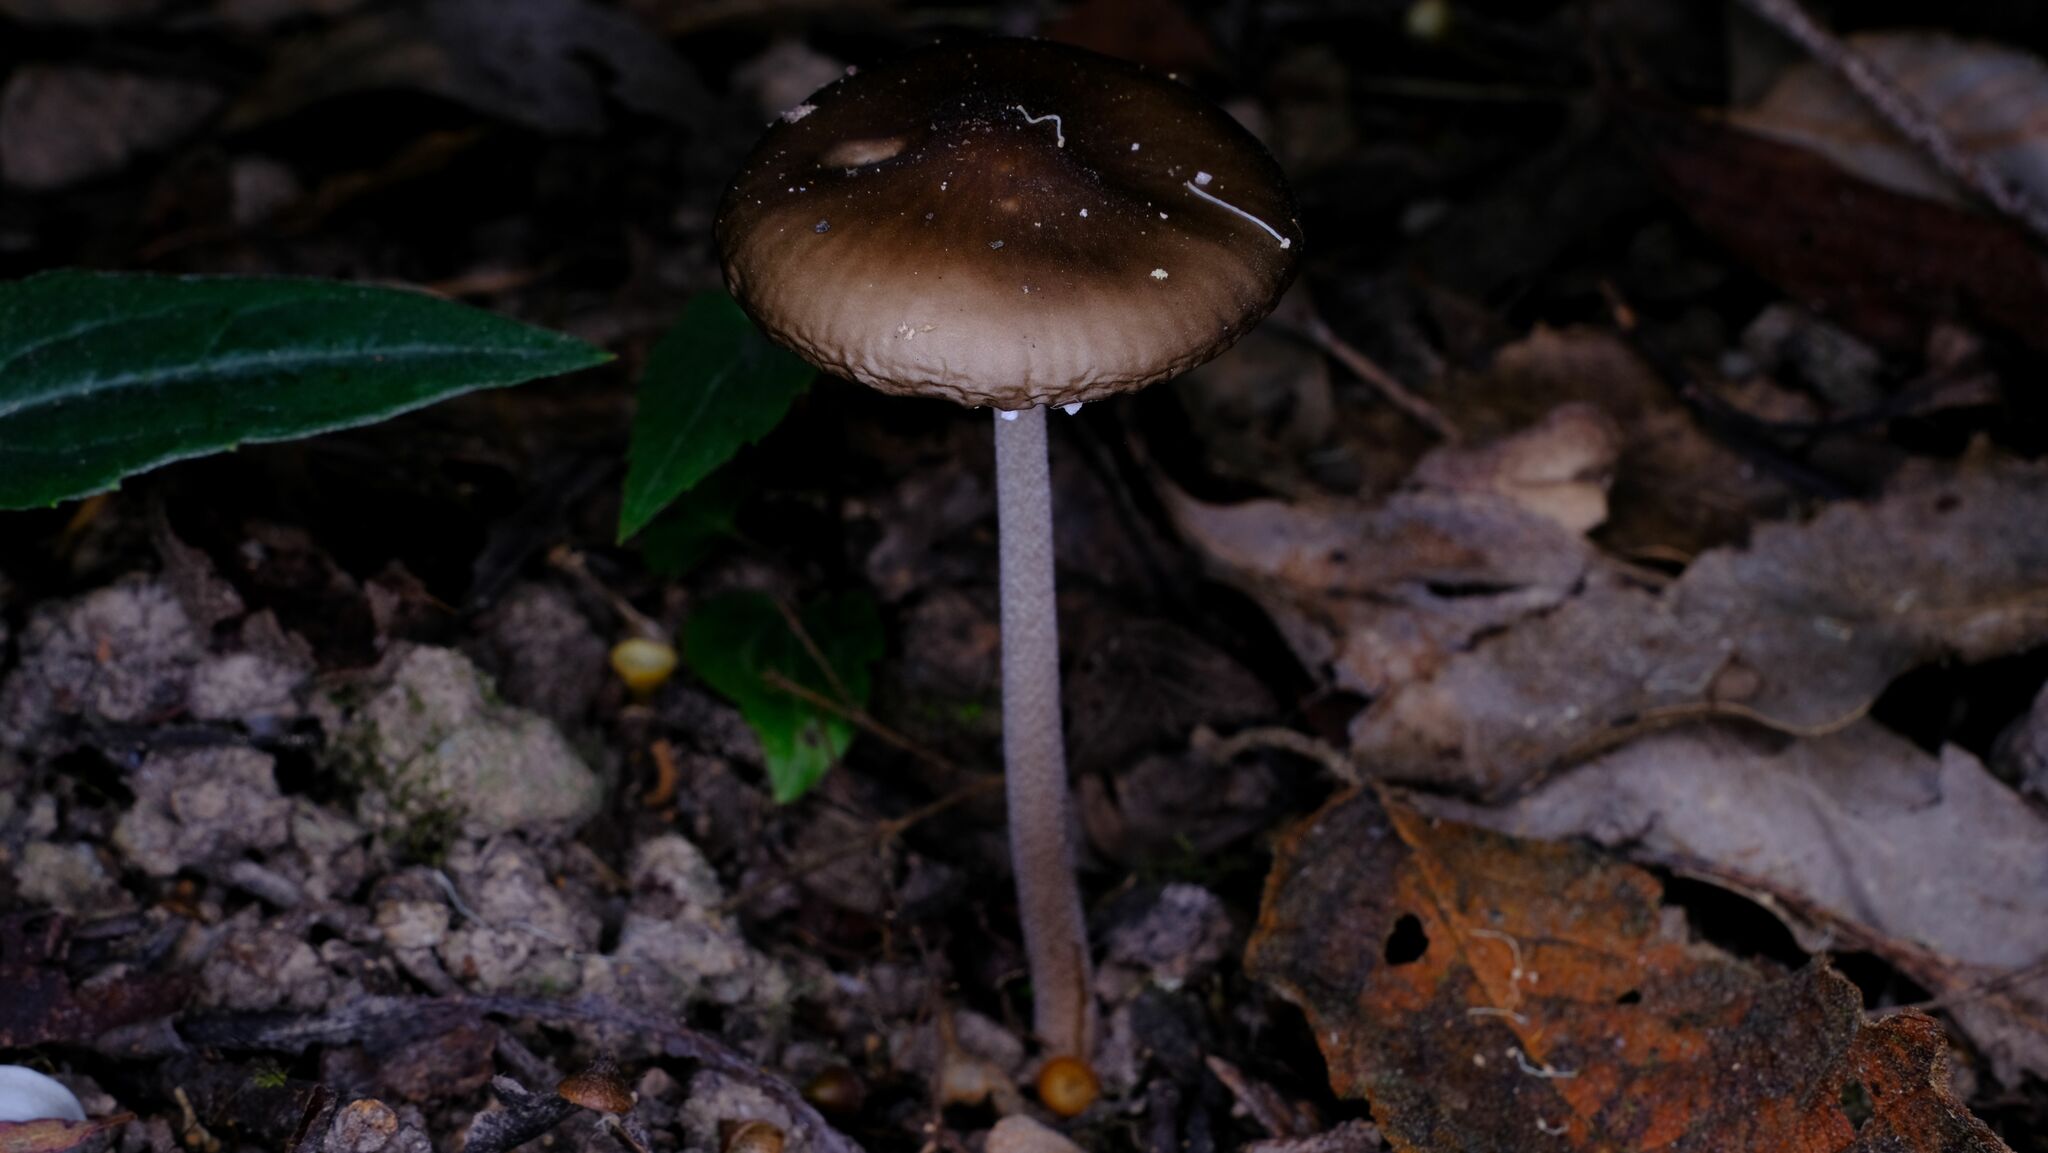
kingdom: Fungi
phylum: Basidiomycota
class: Agaricomycetes
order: Agaricales
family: Physalacriaceae
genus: Hymenopellis
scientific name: Hymenopellis gigaspora
